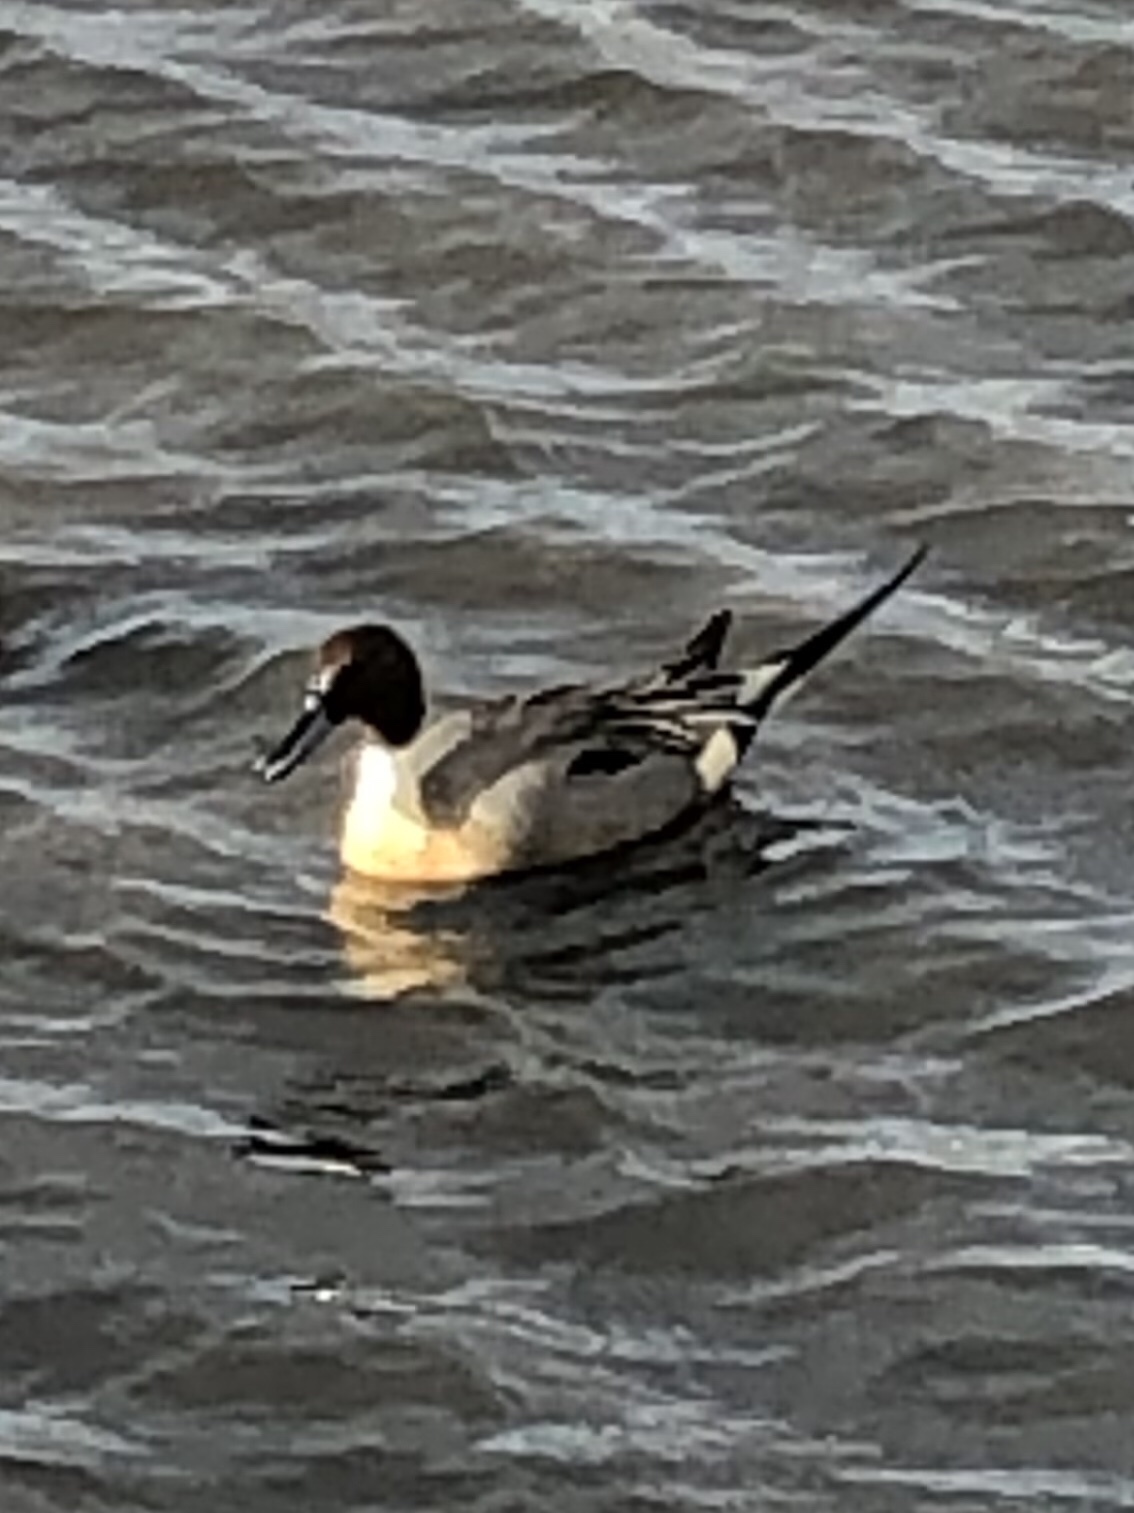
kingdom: Animalia
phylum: Chordata
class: Aves
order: Anseriformes
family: Anatidae
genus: Anas
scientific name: Anas acuta
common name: Northern pintail
